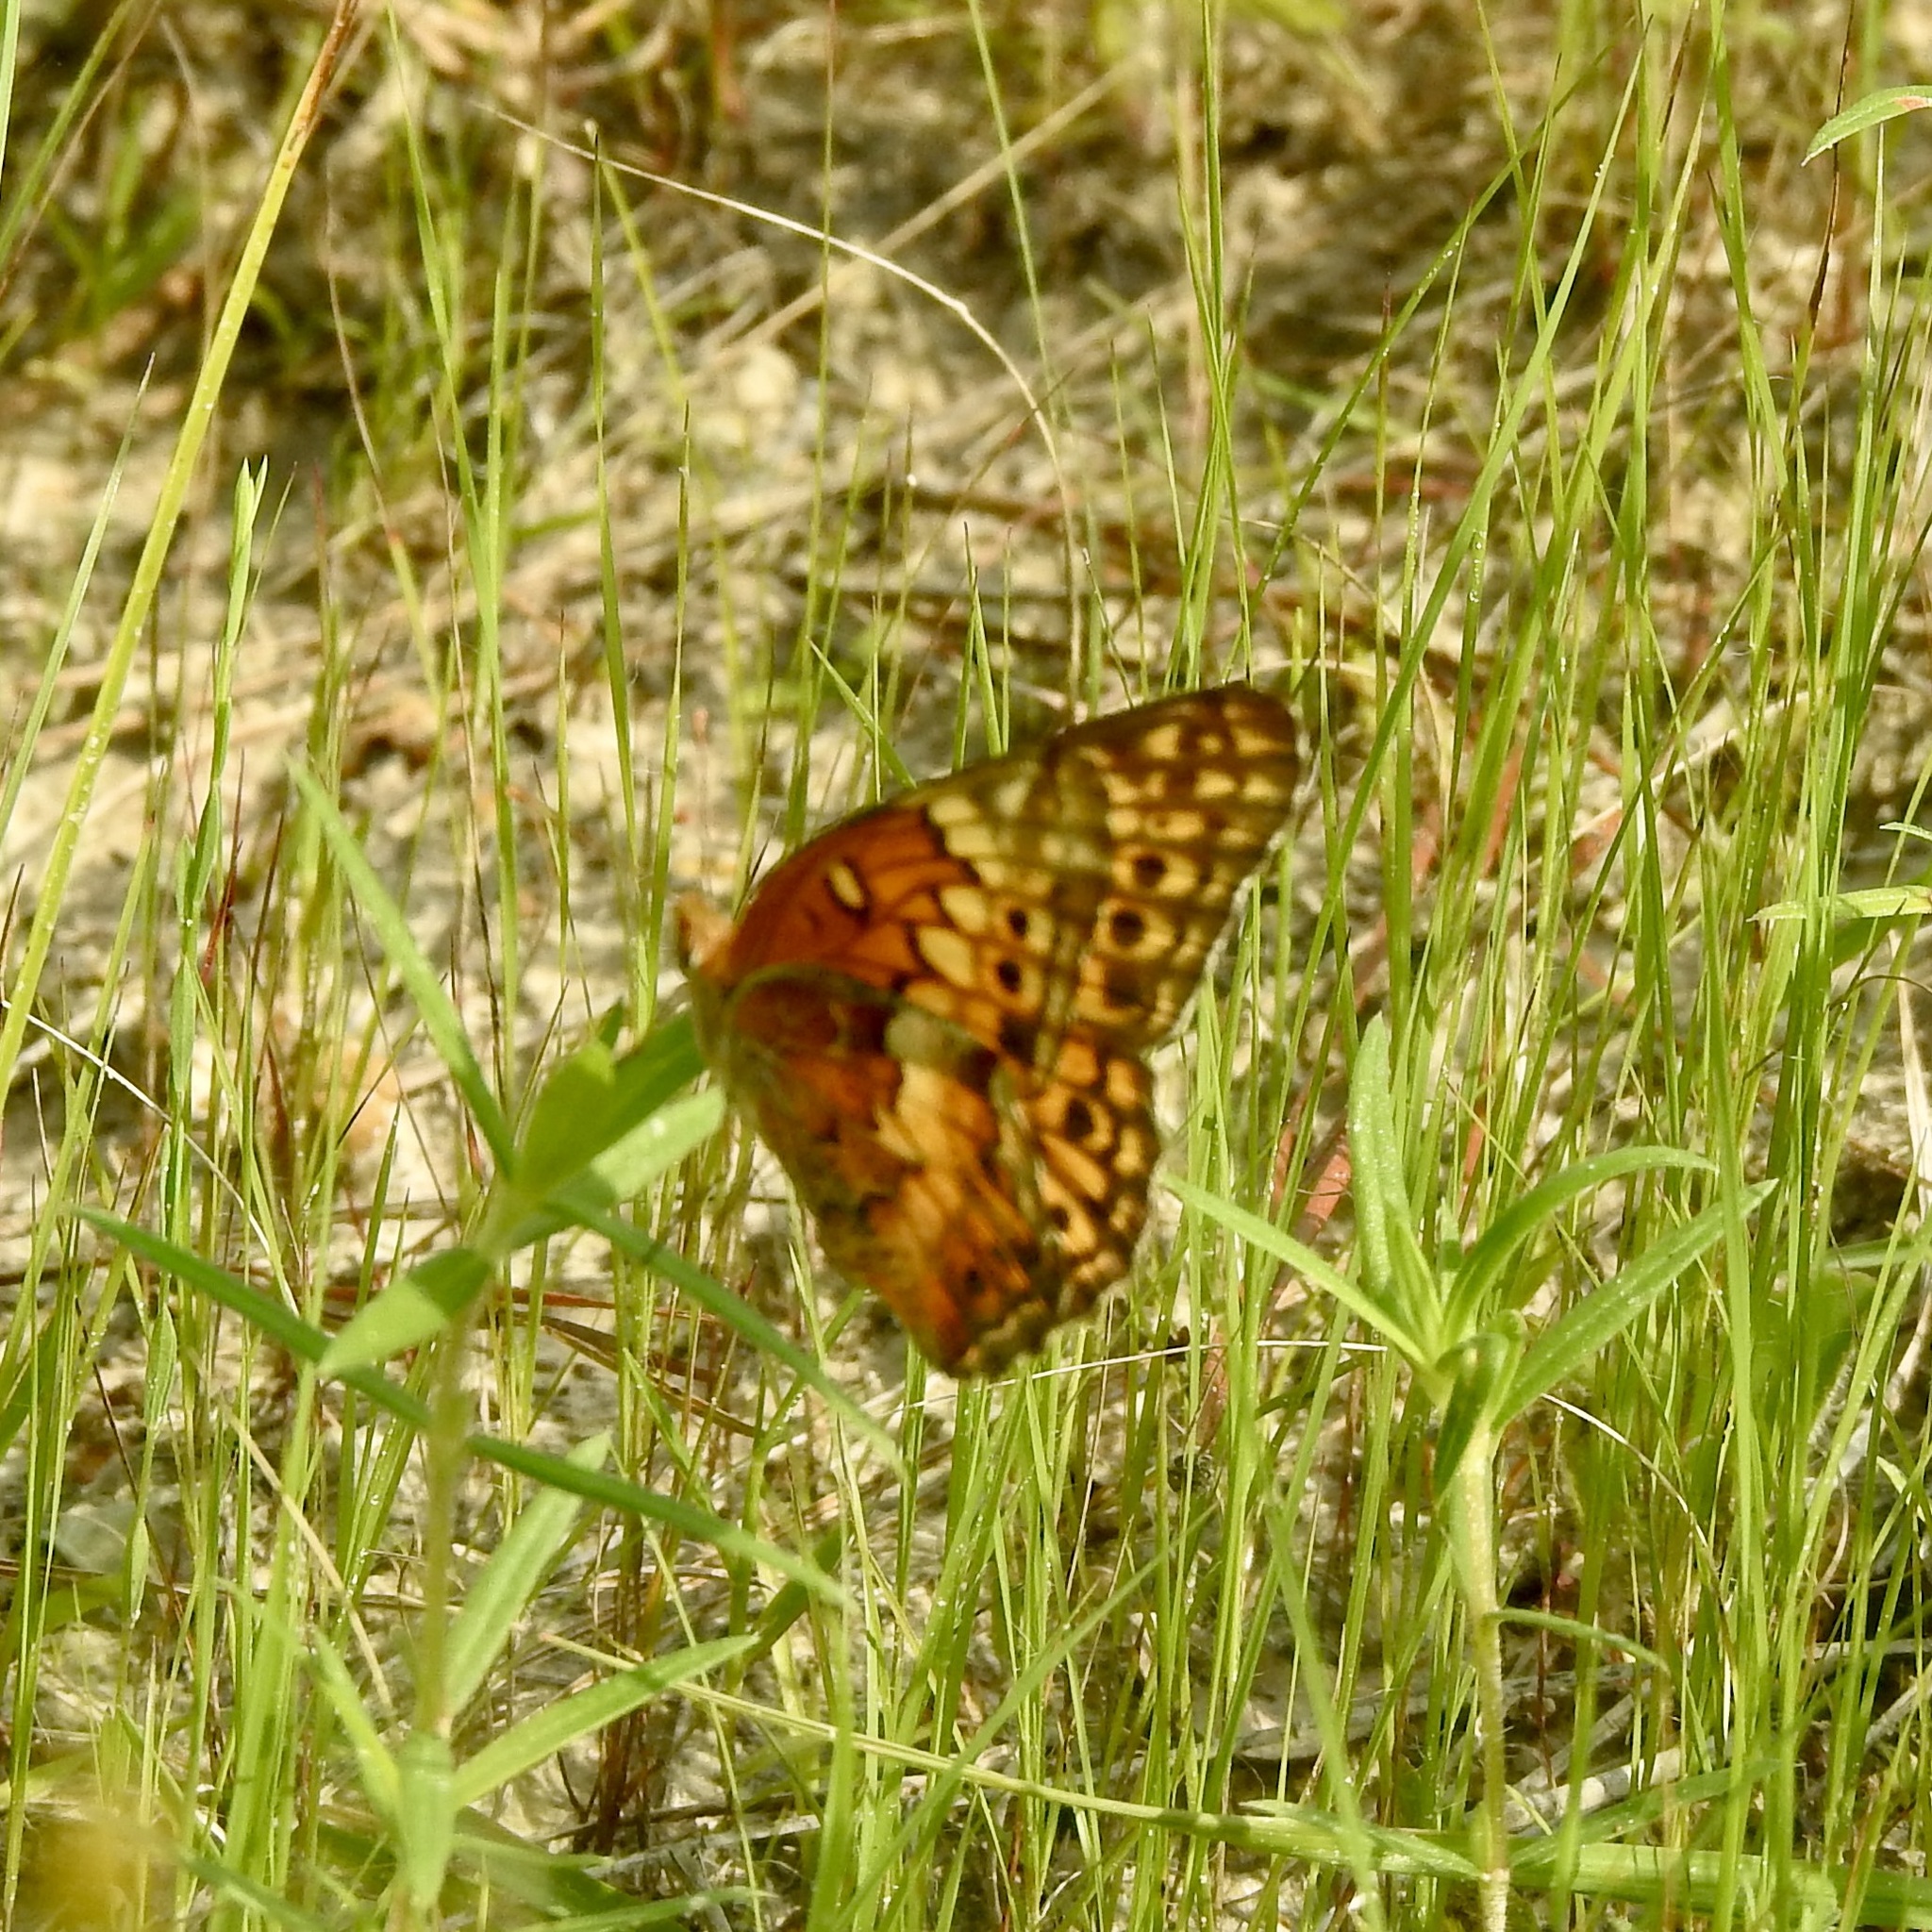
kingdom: Animalia
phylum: Arthropoda
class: Insecta
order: Lepidoptera
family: Nymphalidae
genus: Euptoieta
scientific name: Euptoieta claudia
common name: Variegated fritillary
